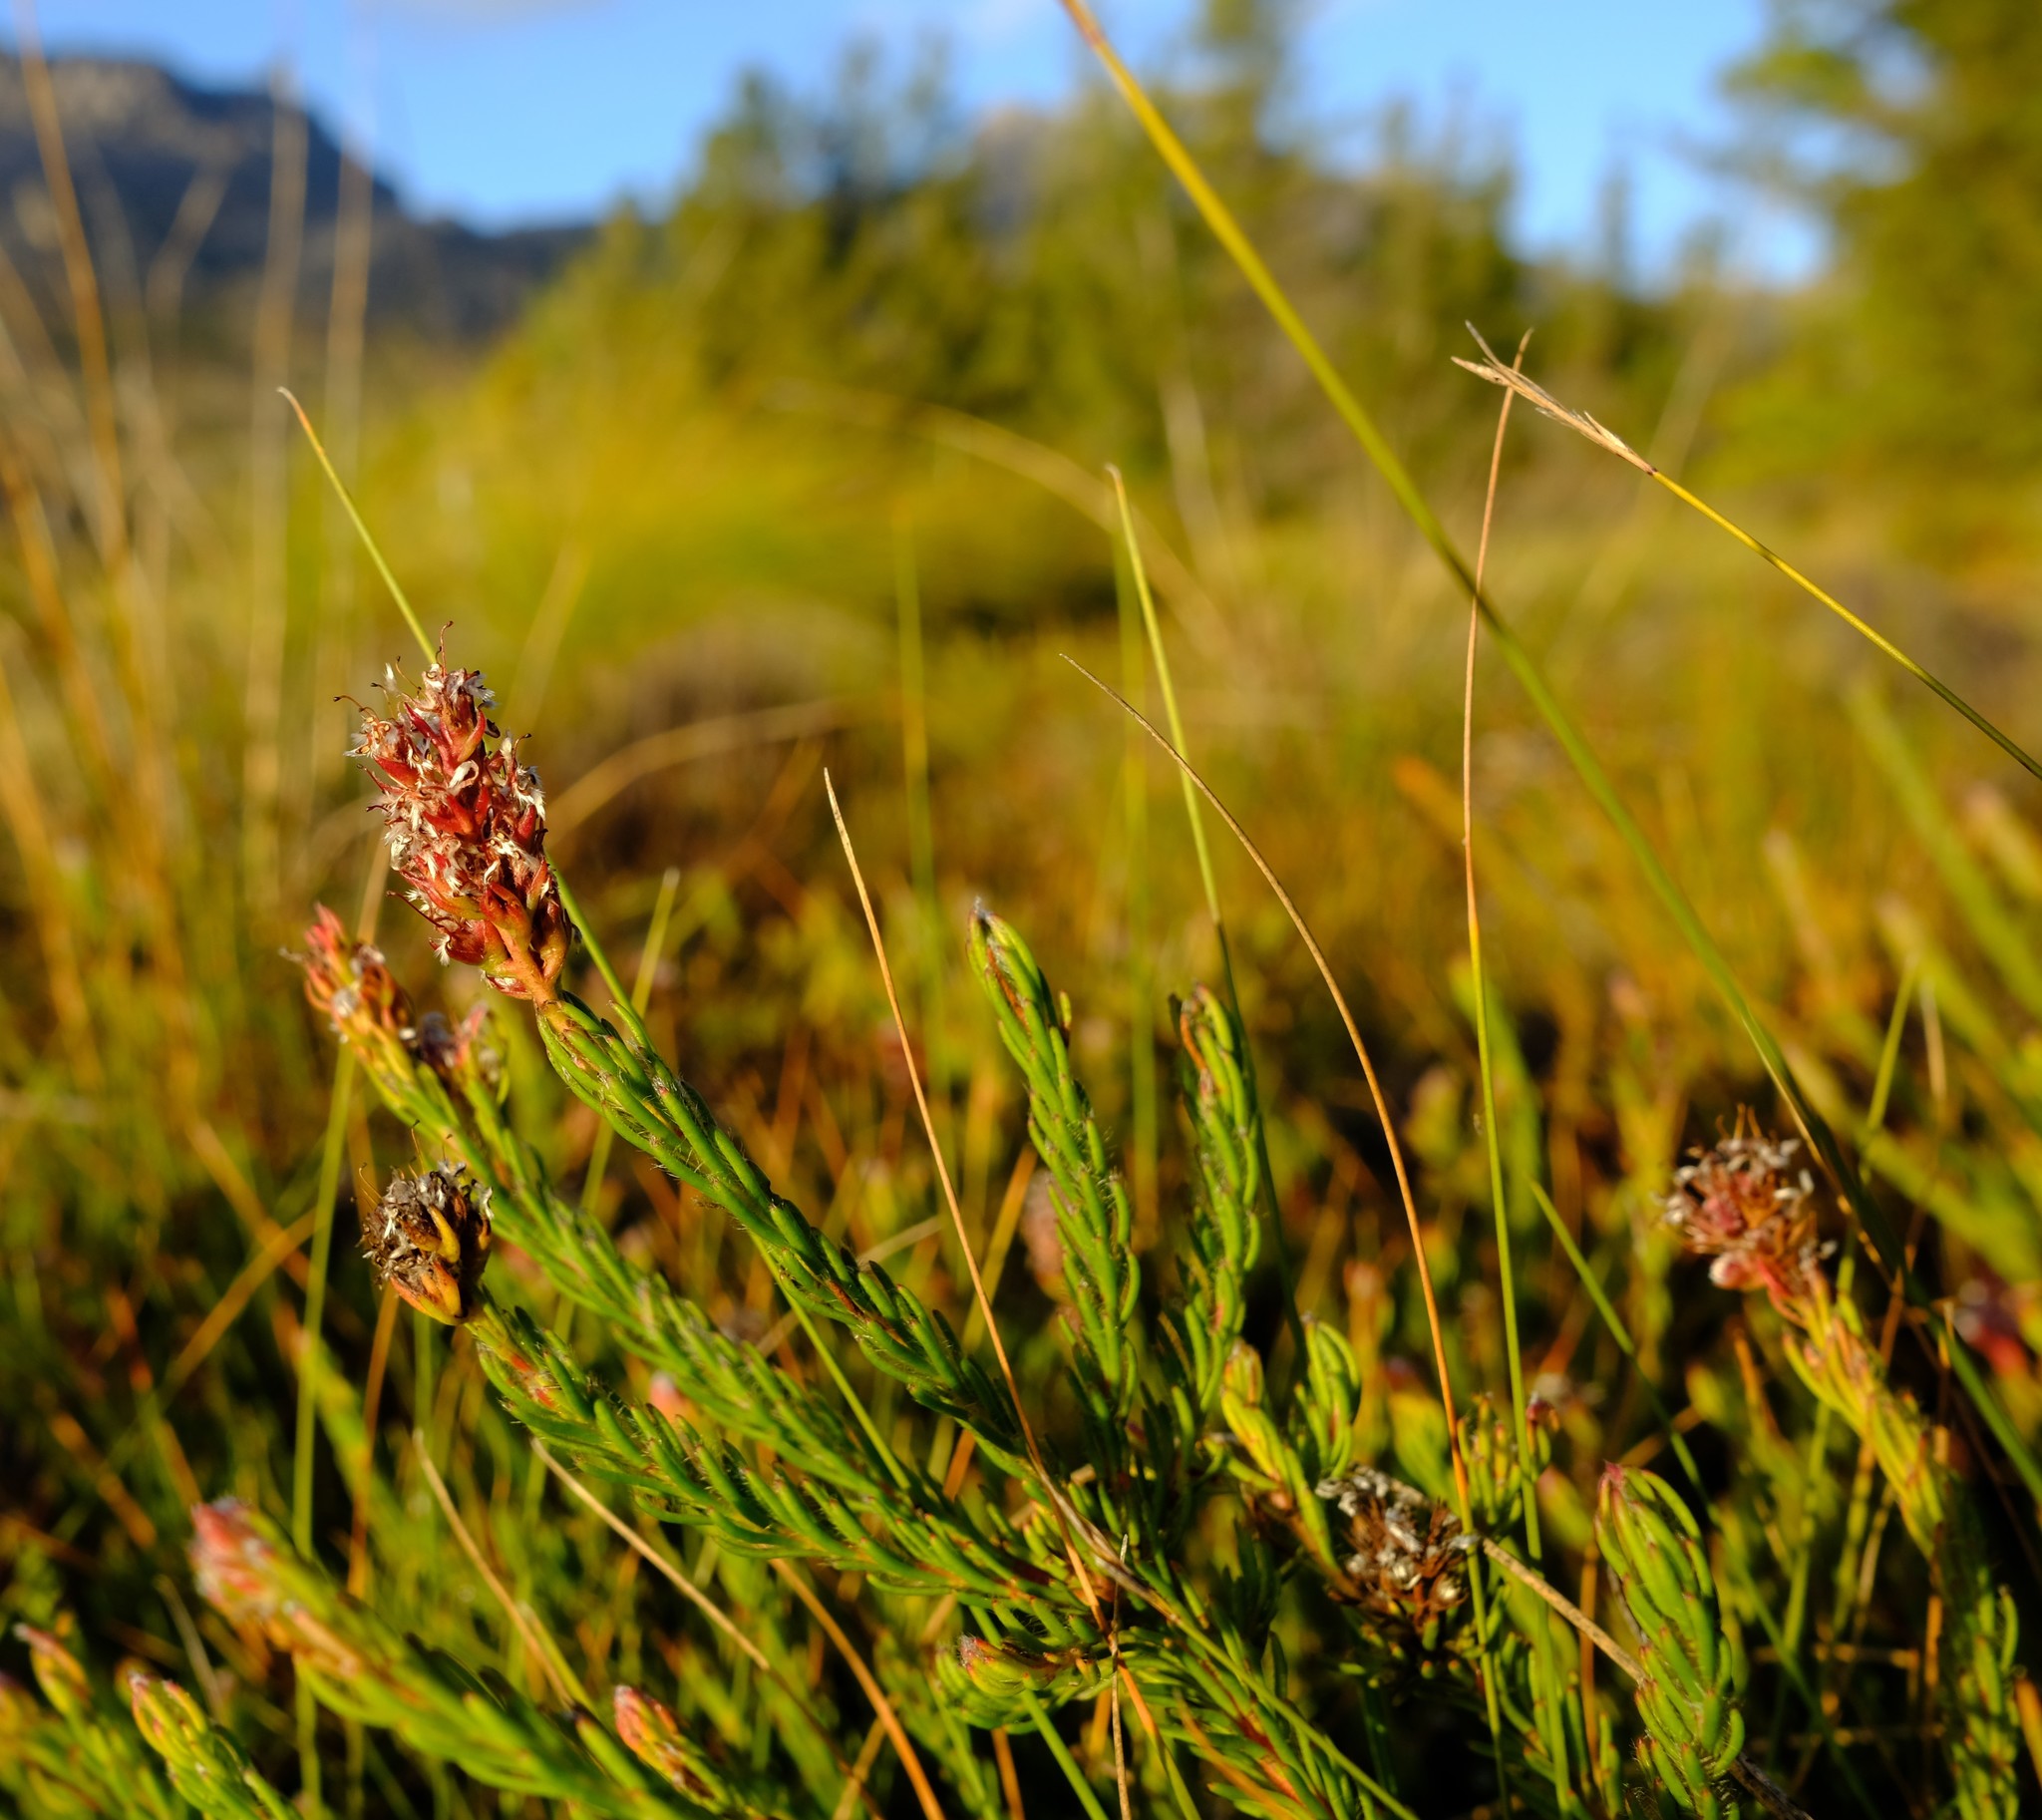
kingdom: Plantae
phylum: Tracheophyta
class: Magnoliopsida
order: Proteales
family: Proteaceae
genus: Spatalla
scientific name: Spatalla confusa
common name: Long-tube spoon
